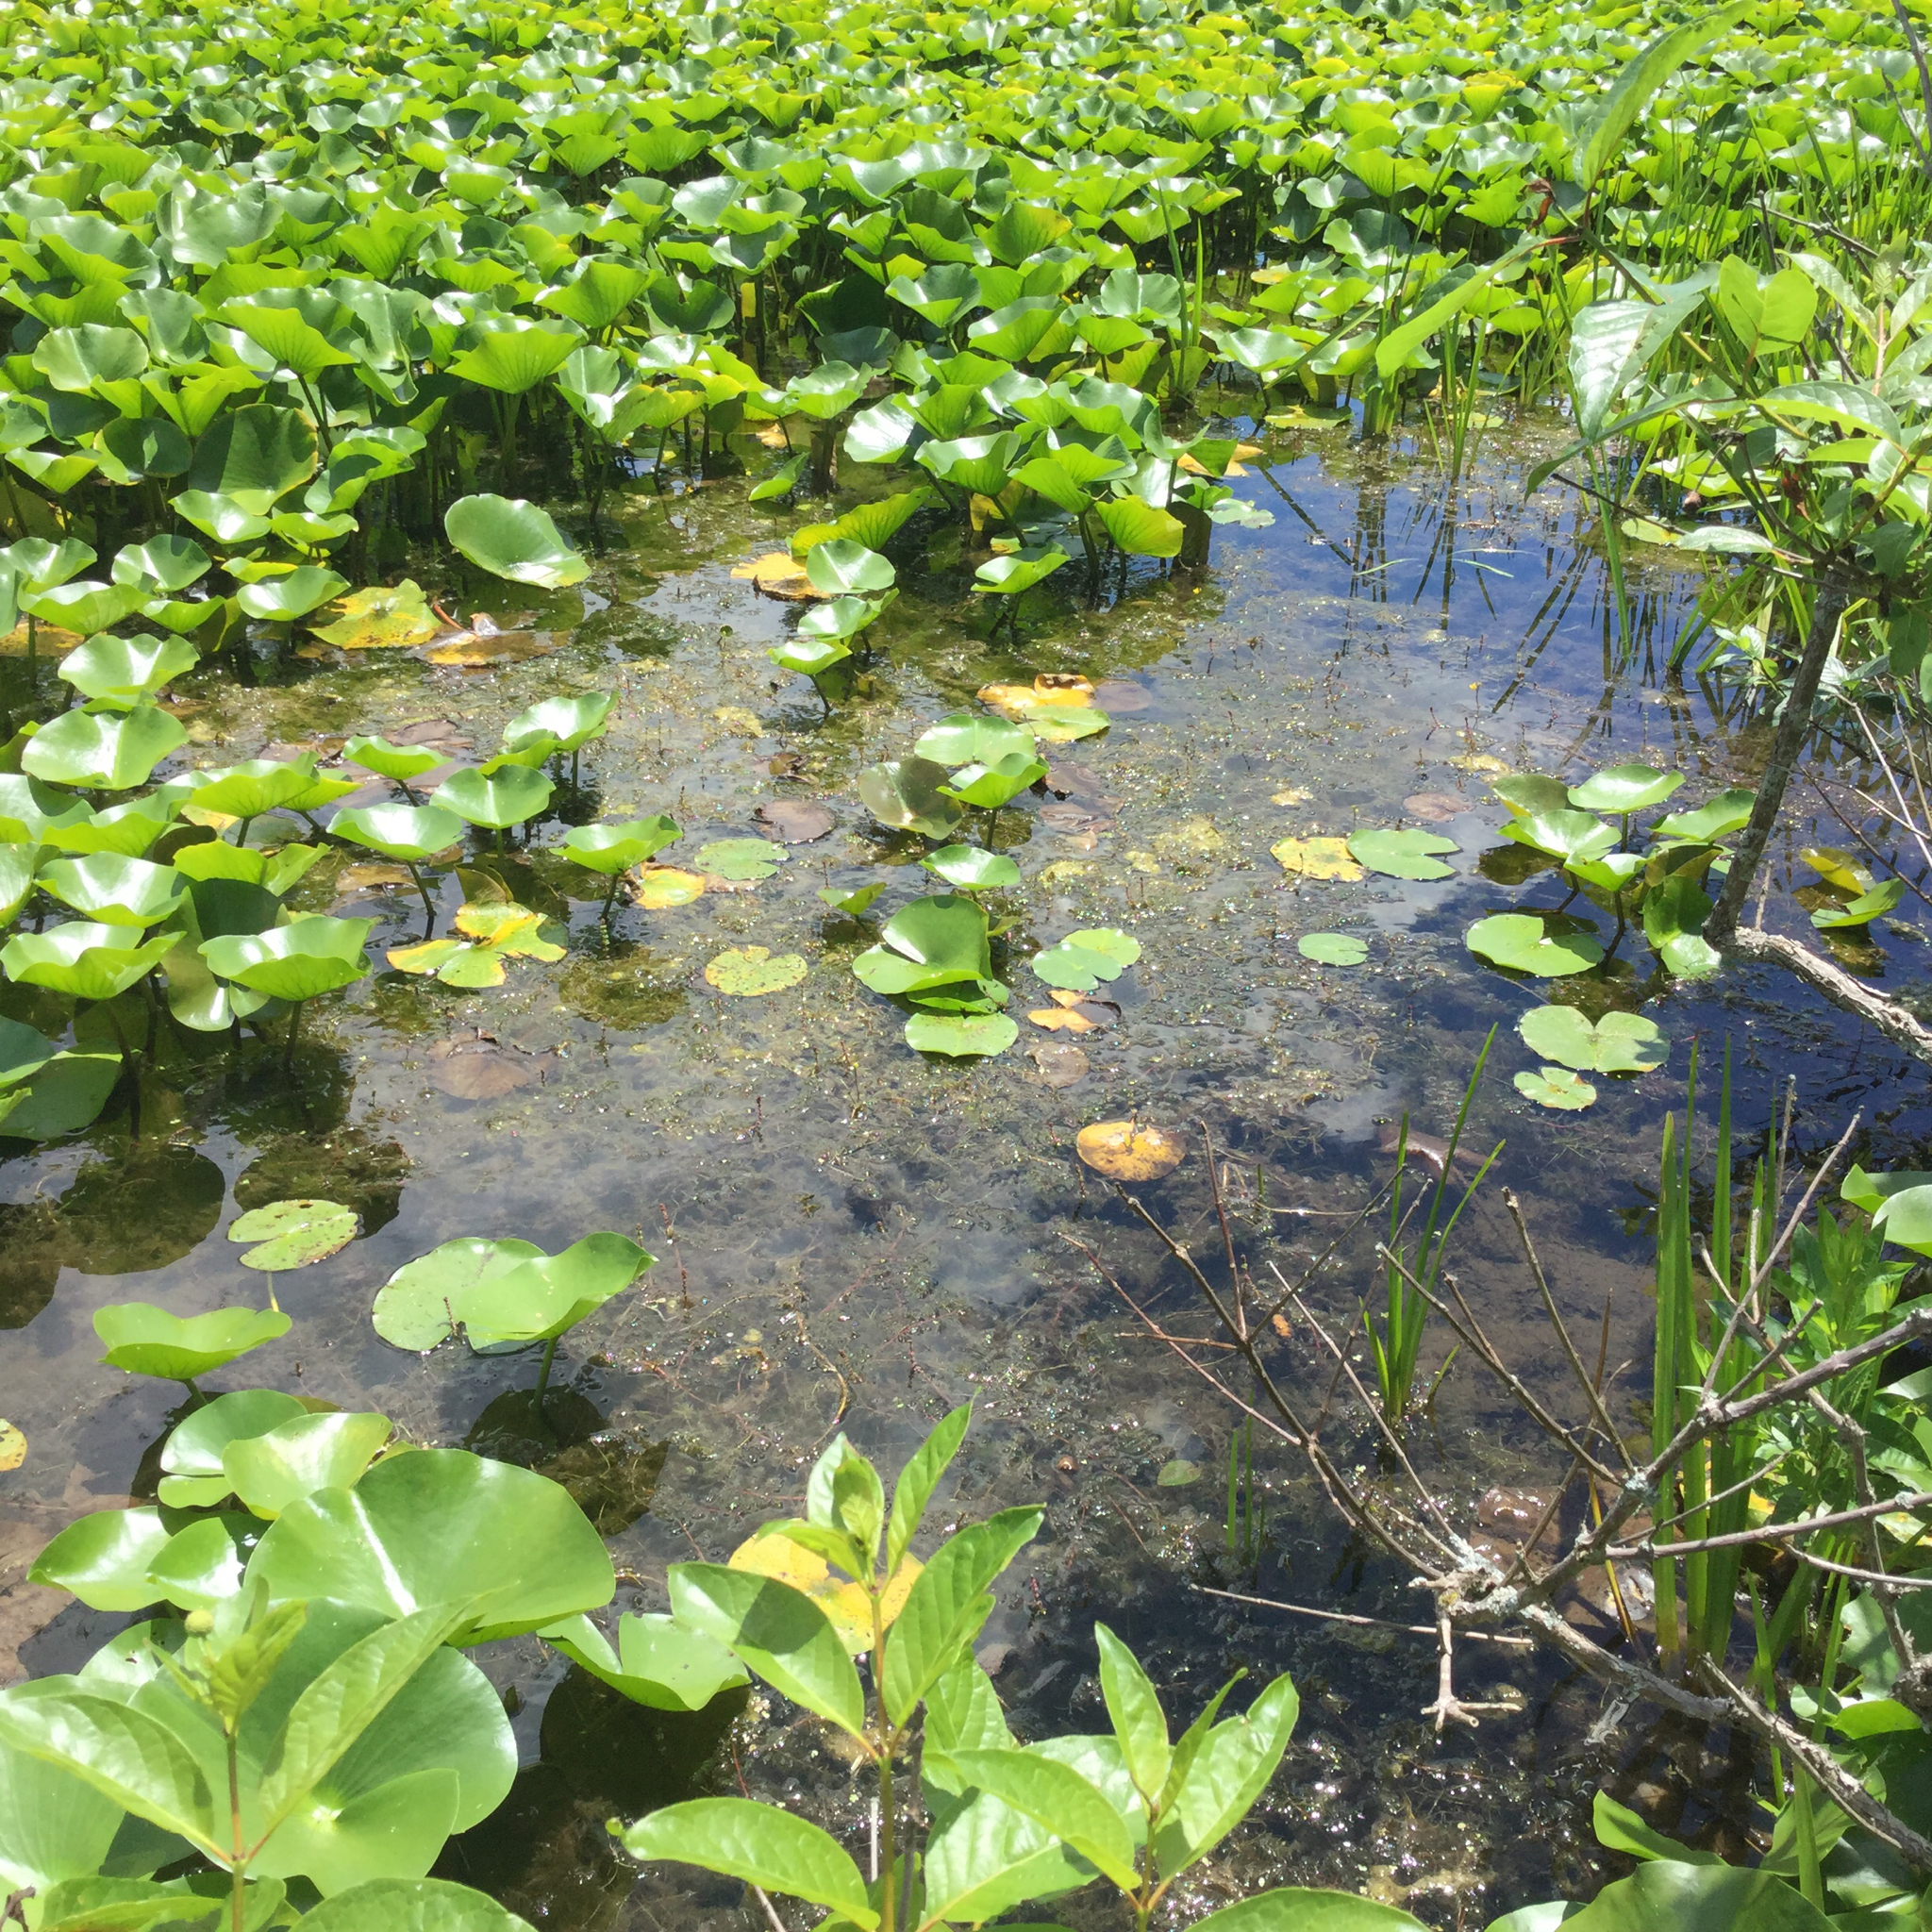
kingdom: Plantae
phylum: Tracheophyta
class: Magnoliopsida
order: Saxifragales
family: Haloragaceae
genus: Myriophyllum
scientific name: Myriophyllum spicatum
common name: Spiked water-milfoil
